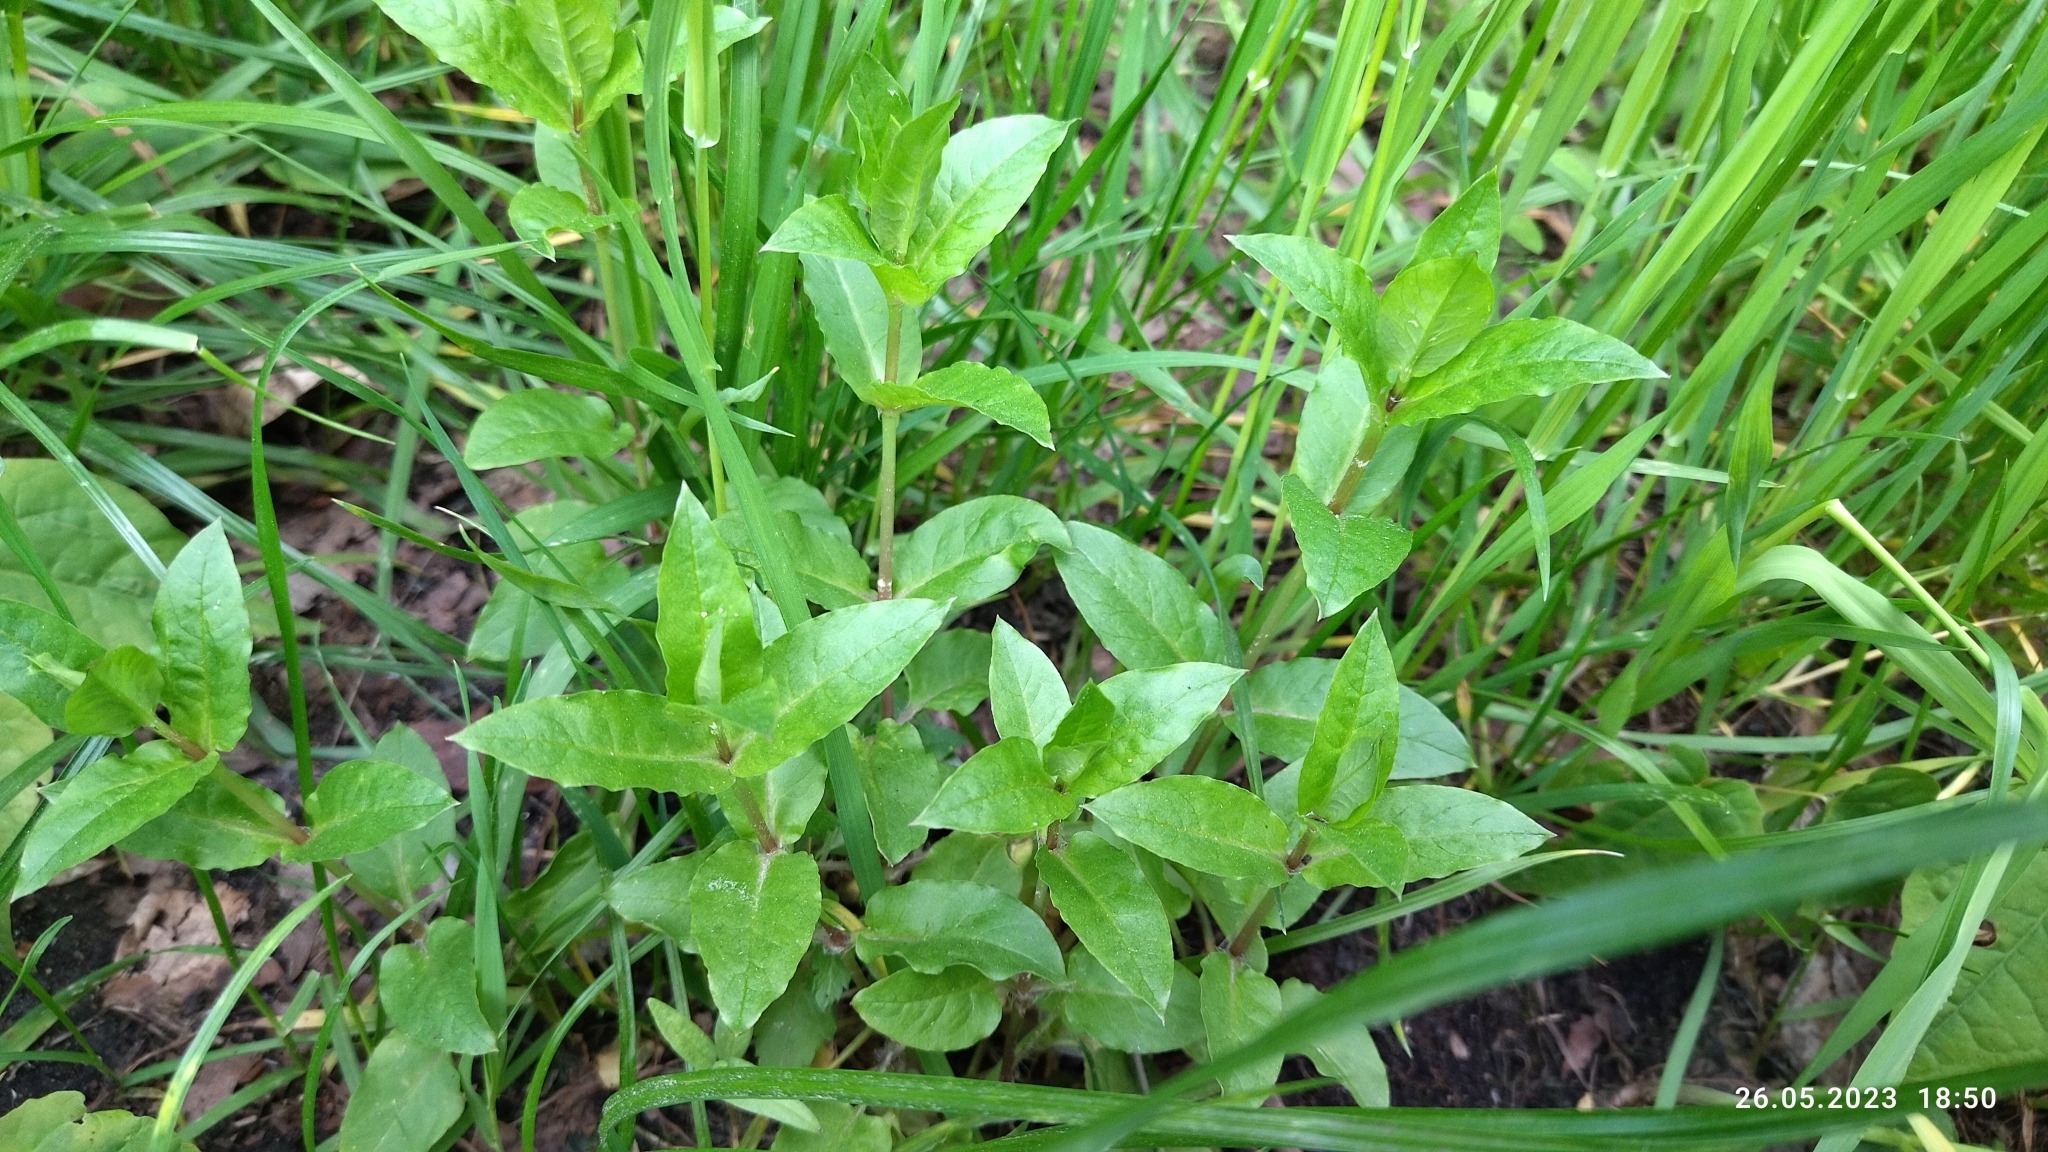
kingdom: Plantae
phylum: Tracheophyta
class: Magnoliopsida
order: Caryophyllales
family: Caryophyllaceae
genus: Stellaria
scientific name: Stellaria aquatica
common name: Water chickweed
